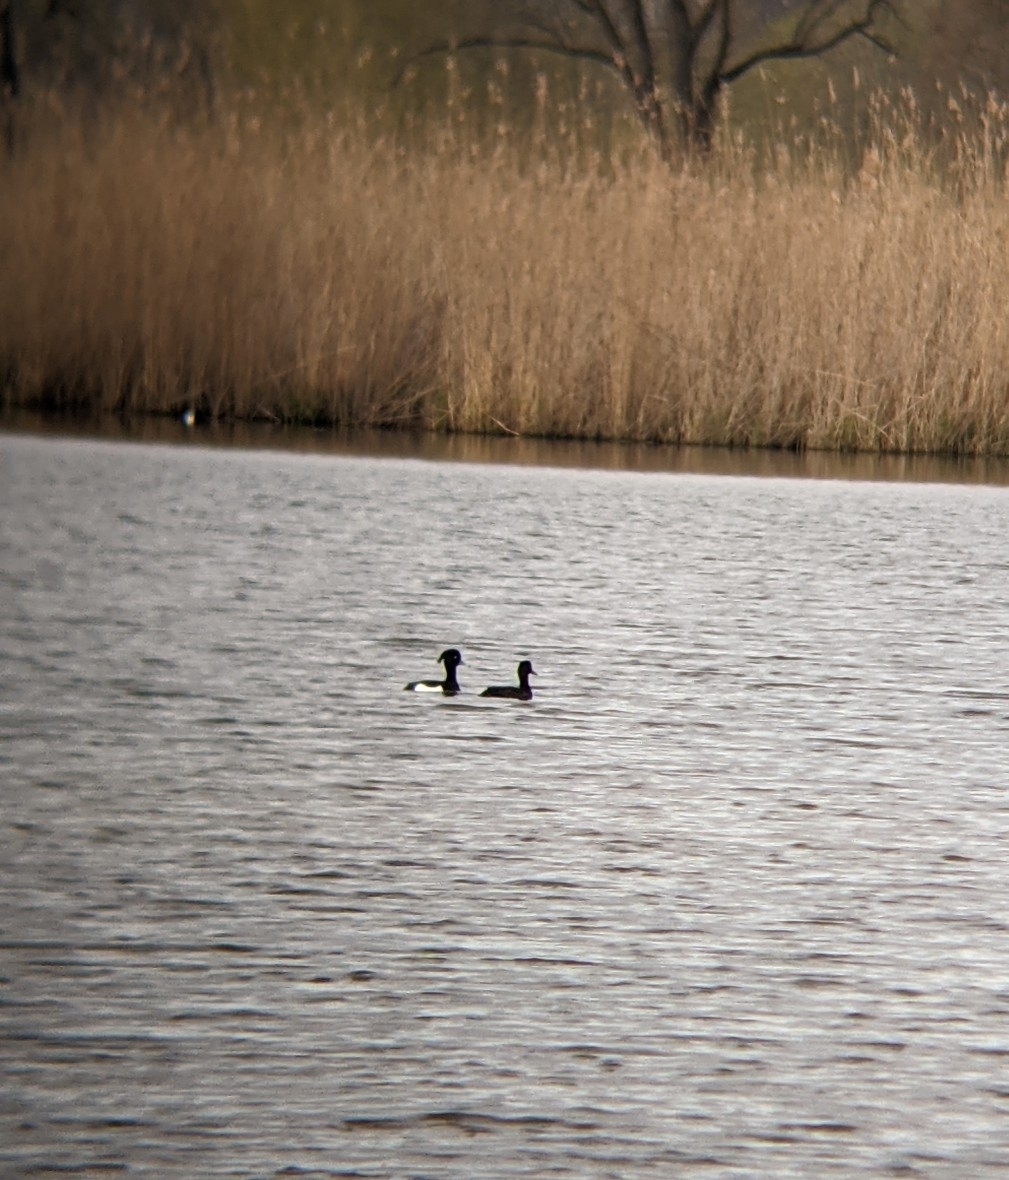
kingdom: Animalia
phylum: Chordata
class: Aves
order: Anseriformes
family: Anatidae
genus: Aythya
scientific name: Aythya fuligula
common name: Tufted duck
